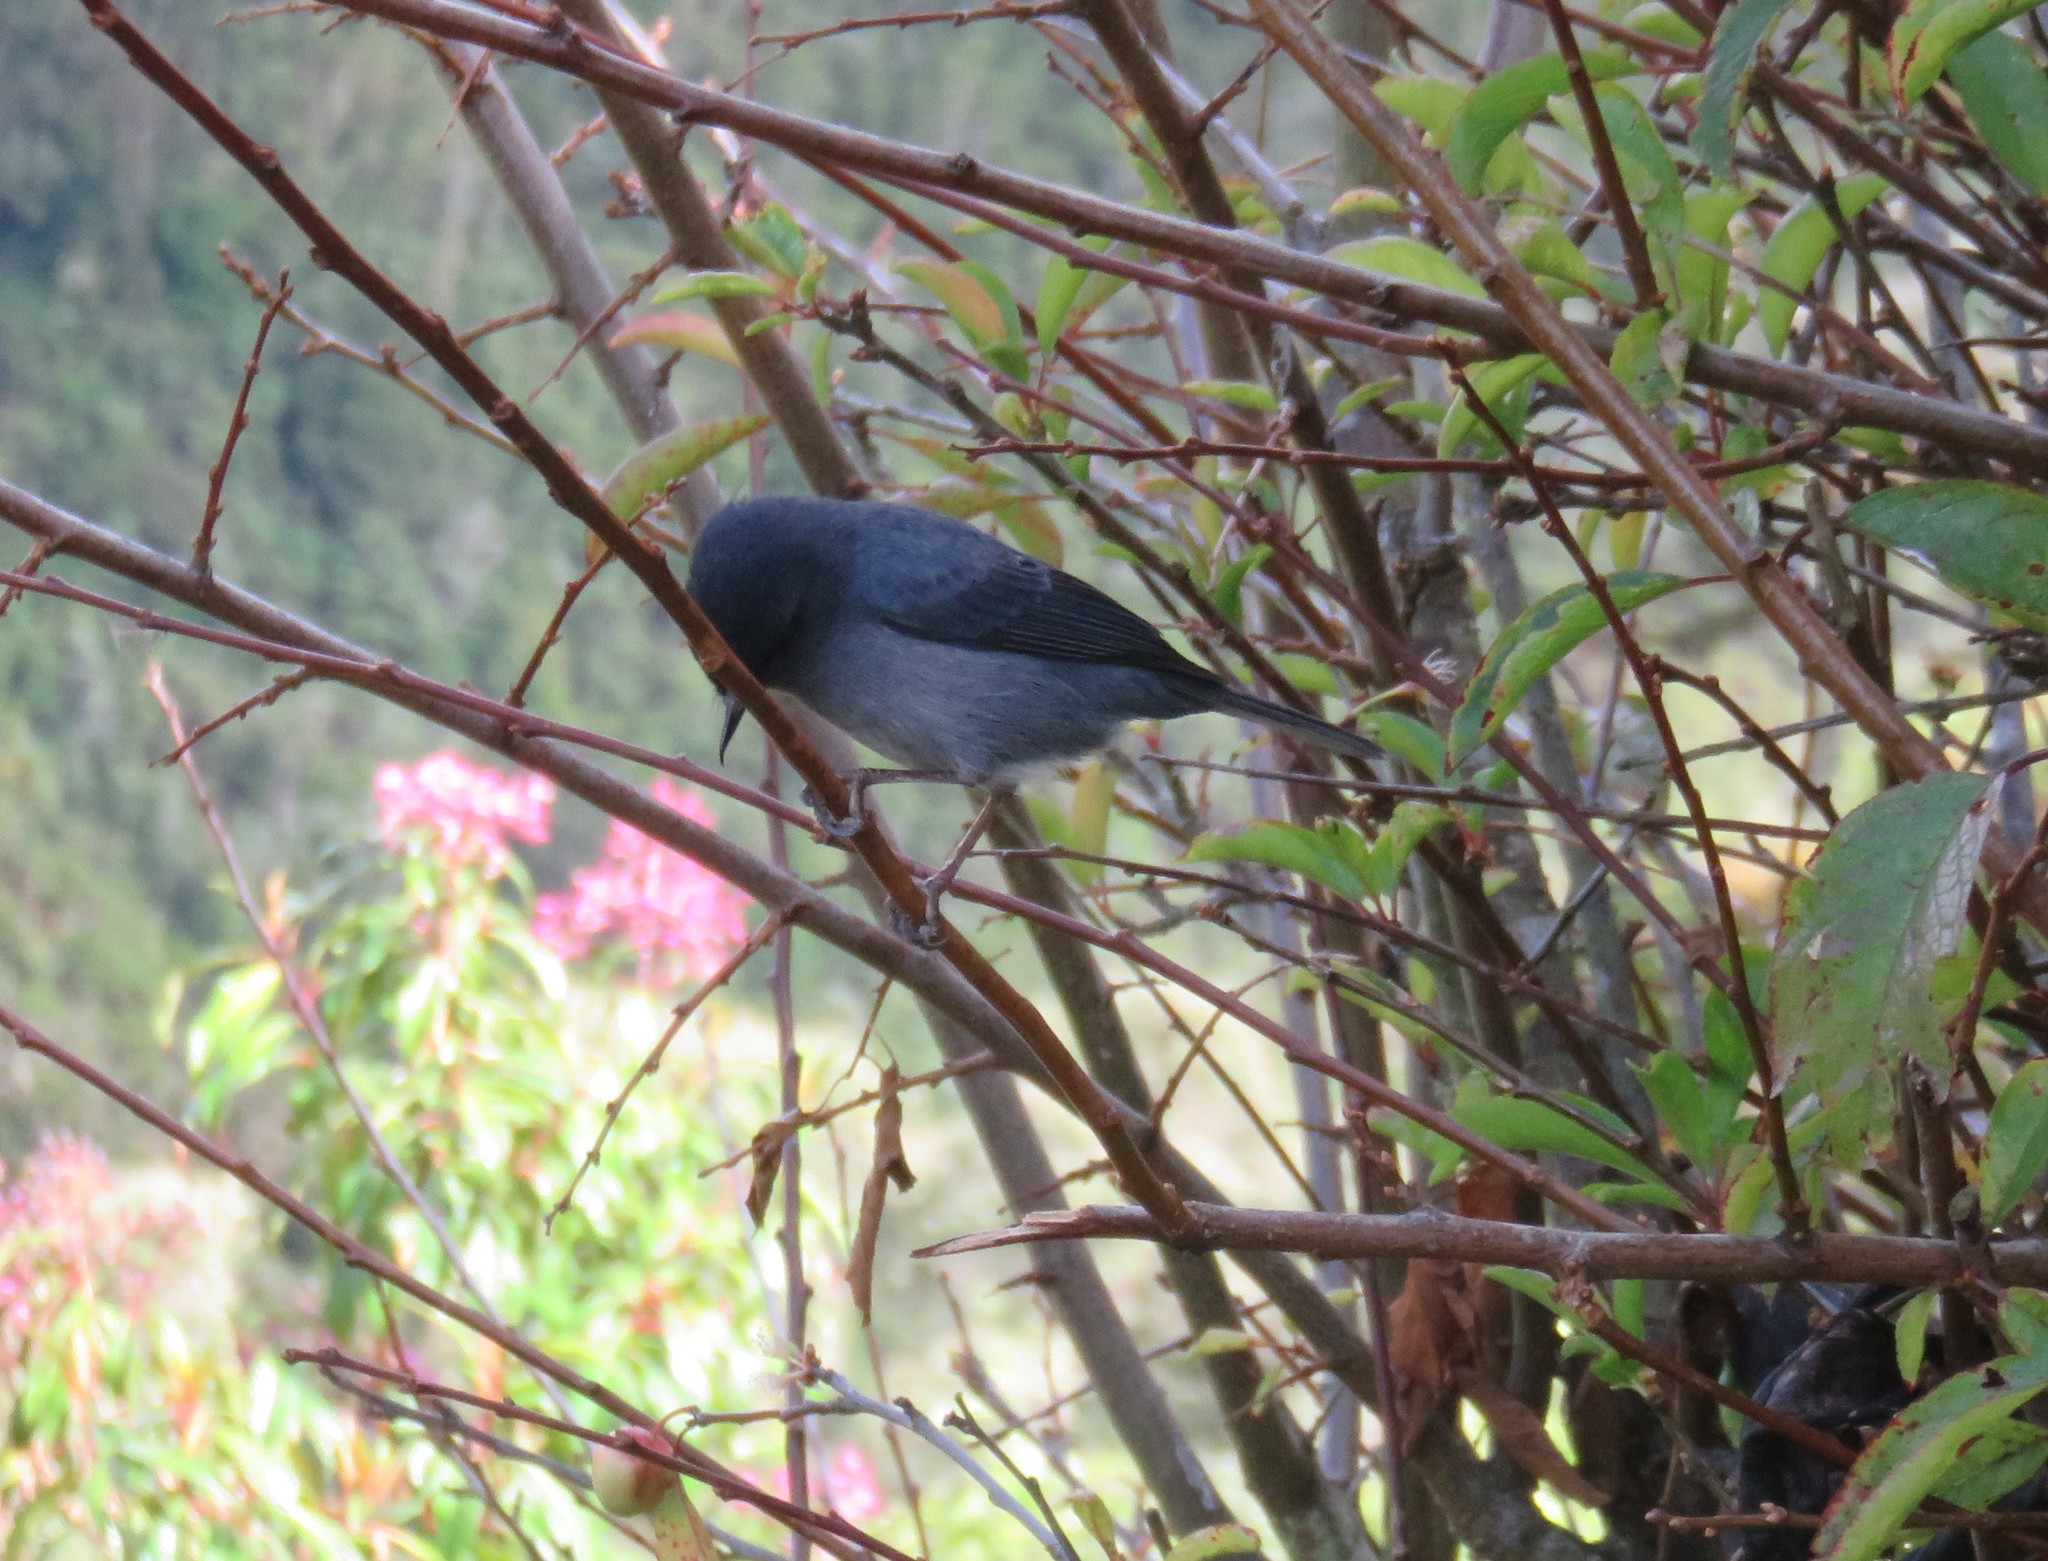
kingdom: Animalia
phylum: Chordata
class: Aves
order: Passeriformes
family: Thraupidae
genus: Diglossa
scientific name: Diglossa plumbea
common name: Slaty flowerpiercer
